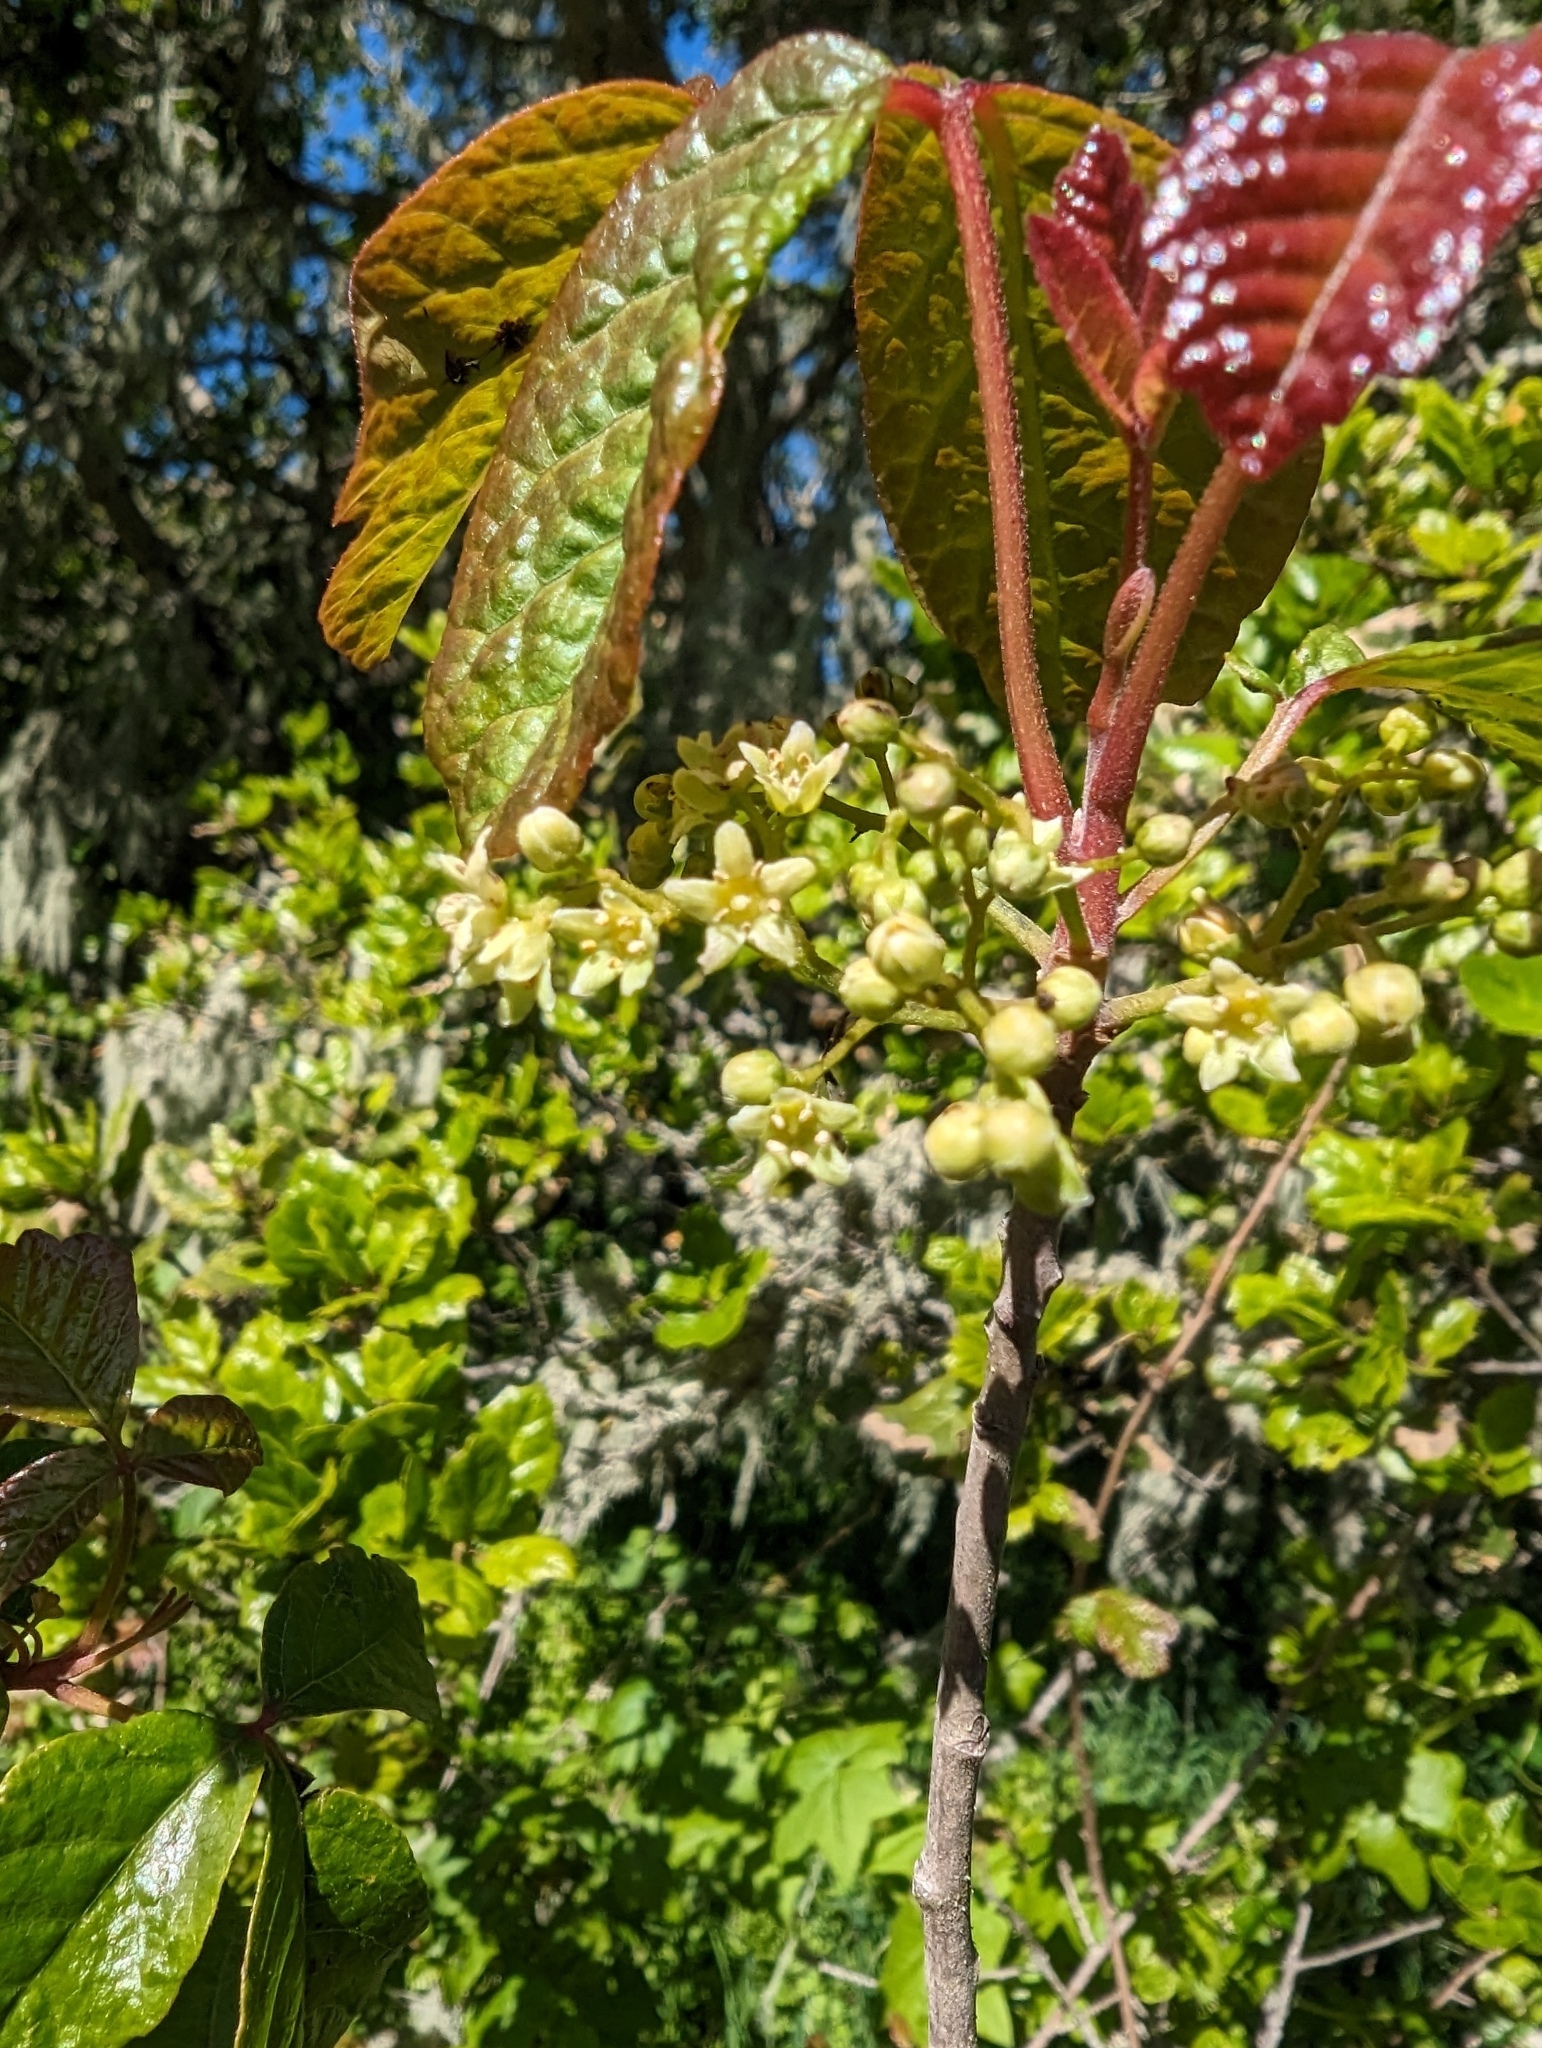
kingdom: Plantae
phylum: Tracheophyta
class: Magnoliopsida
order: Sapindales
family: Anacardiaceae
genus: Toxicodendron
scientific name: Toxicodendron diversilobum
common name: Pacific poison-oak
